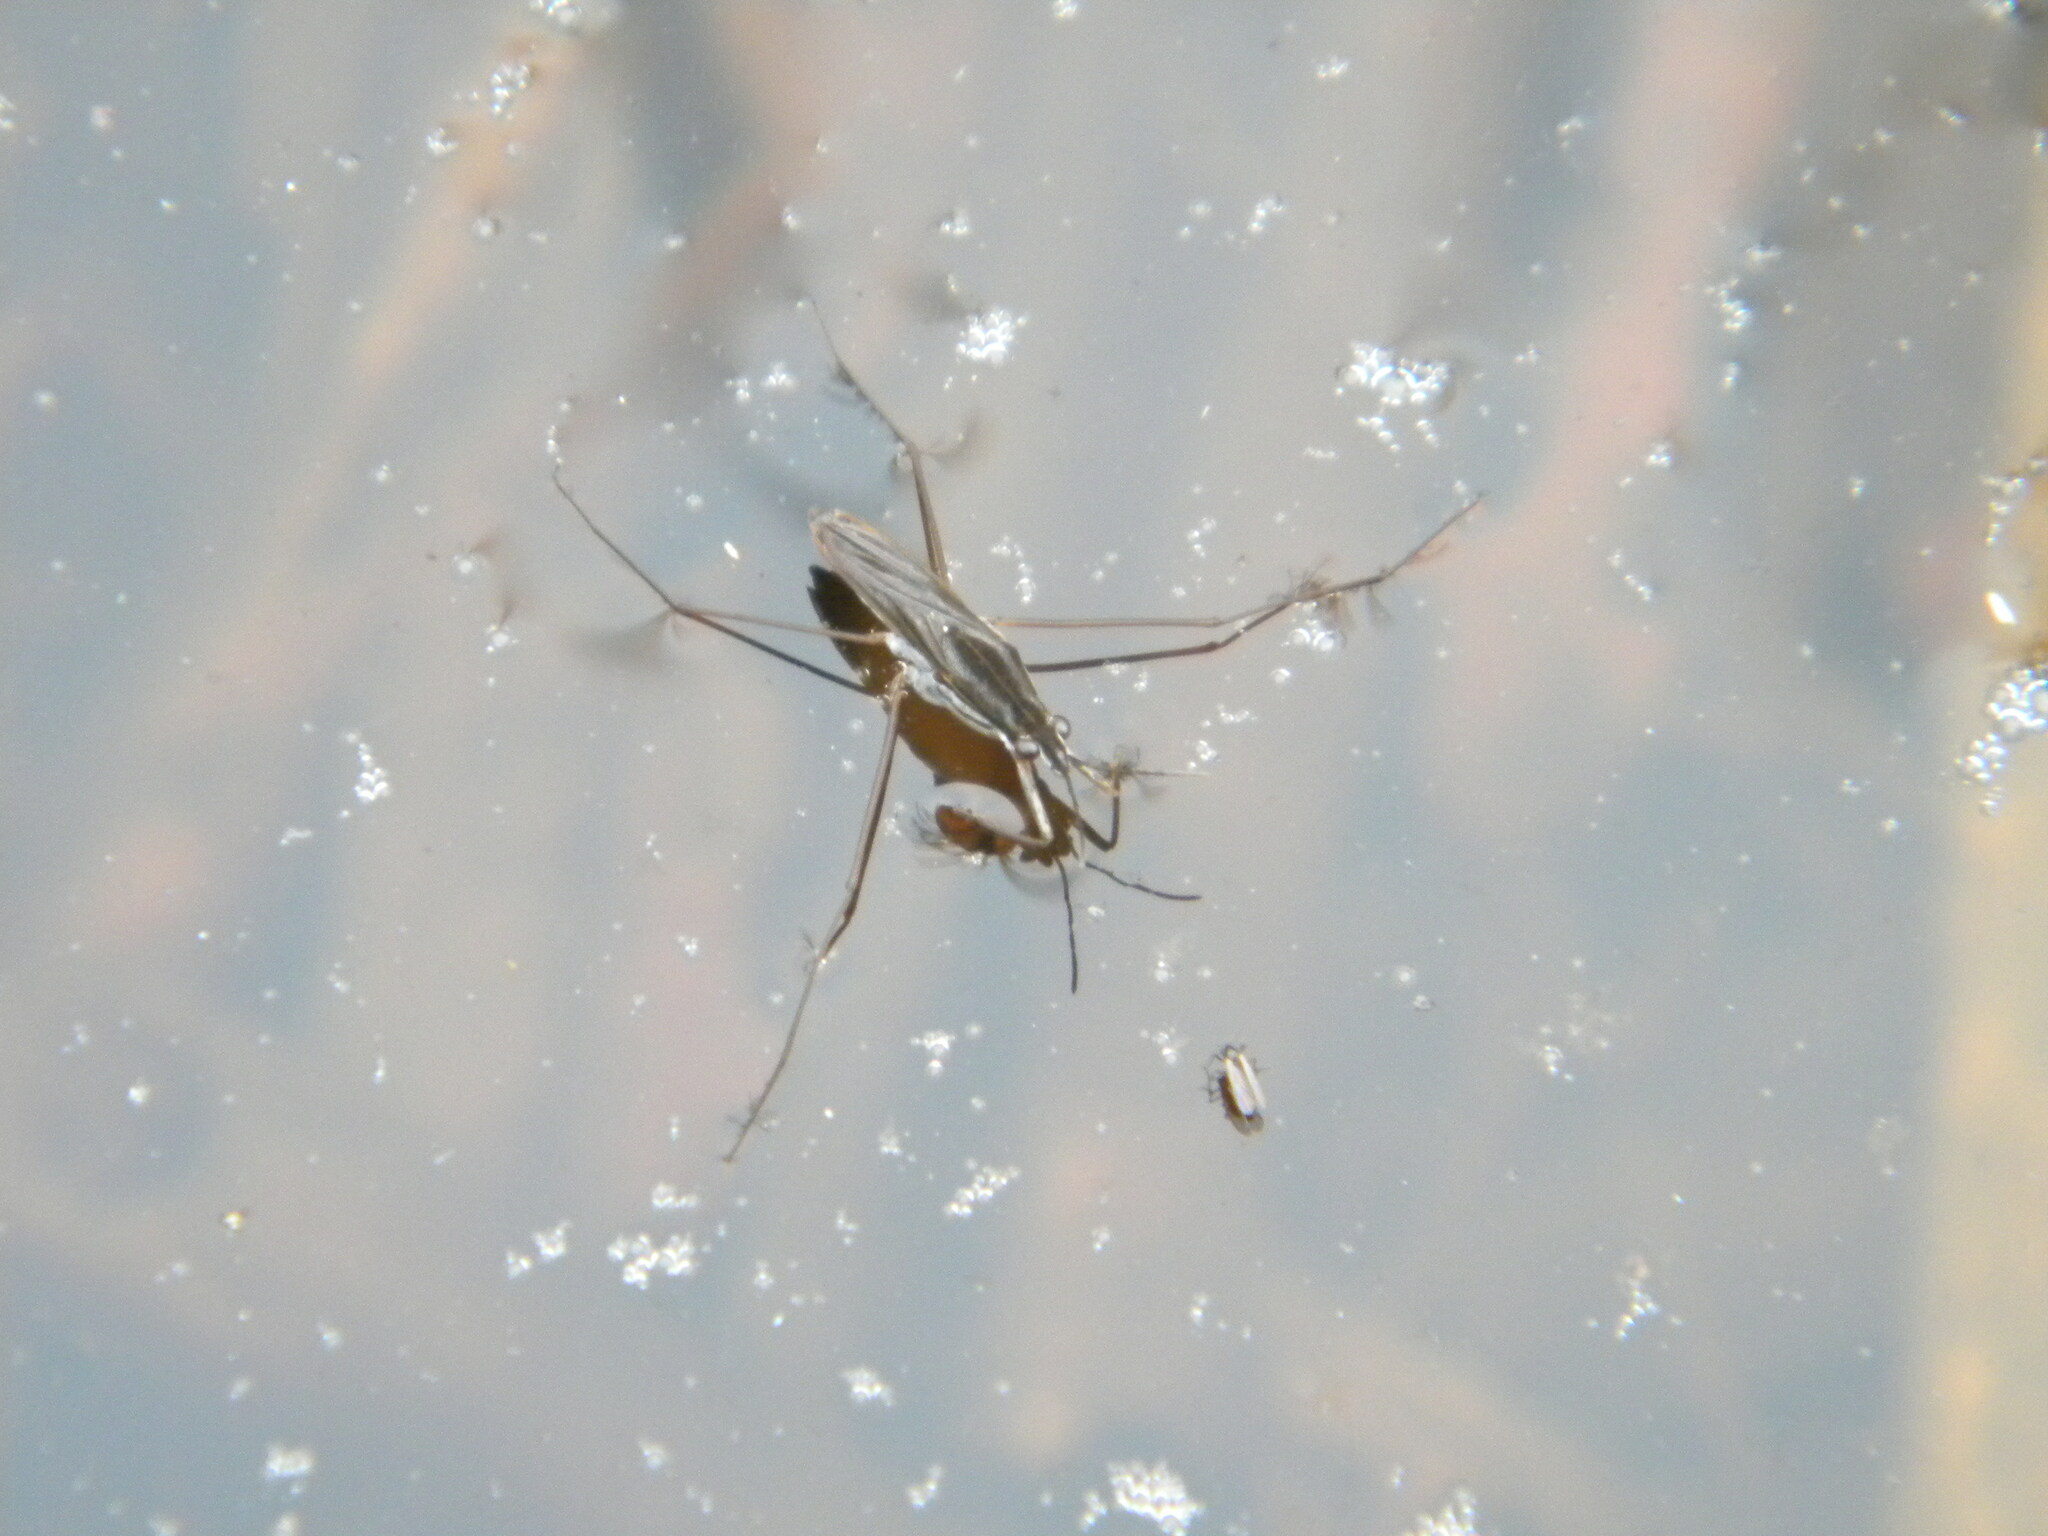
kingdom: Animalia
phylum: Arthropoda
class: Insecta
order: Hemiptera
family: Gerridae
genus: Gerris
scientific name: Gerris
